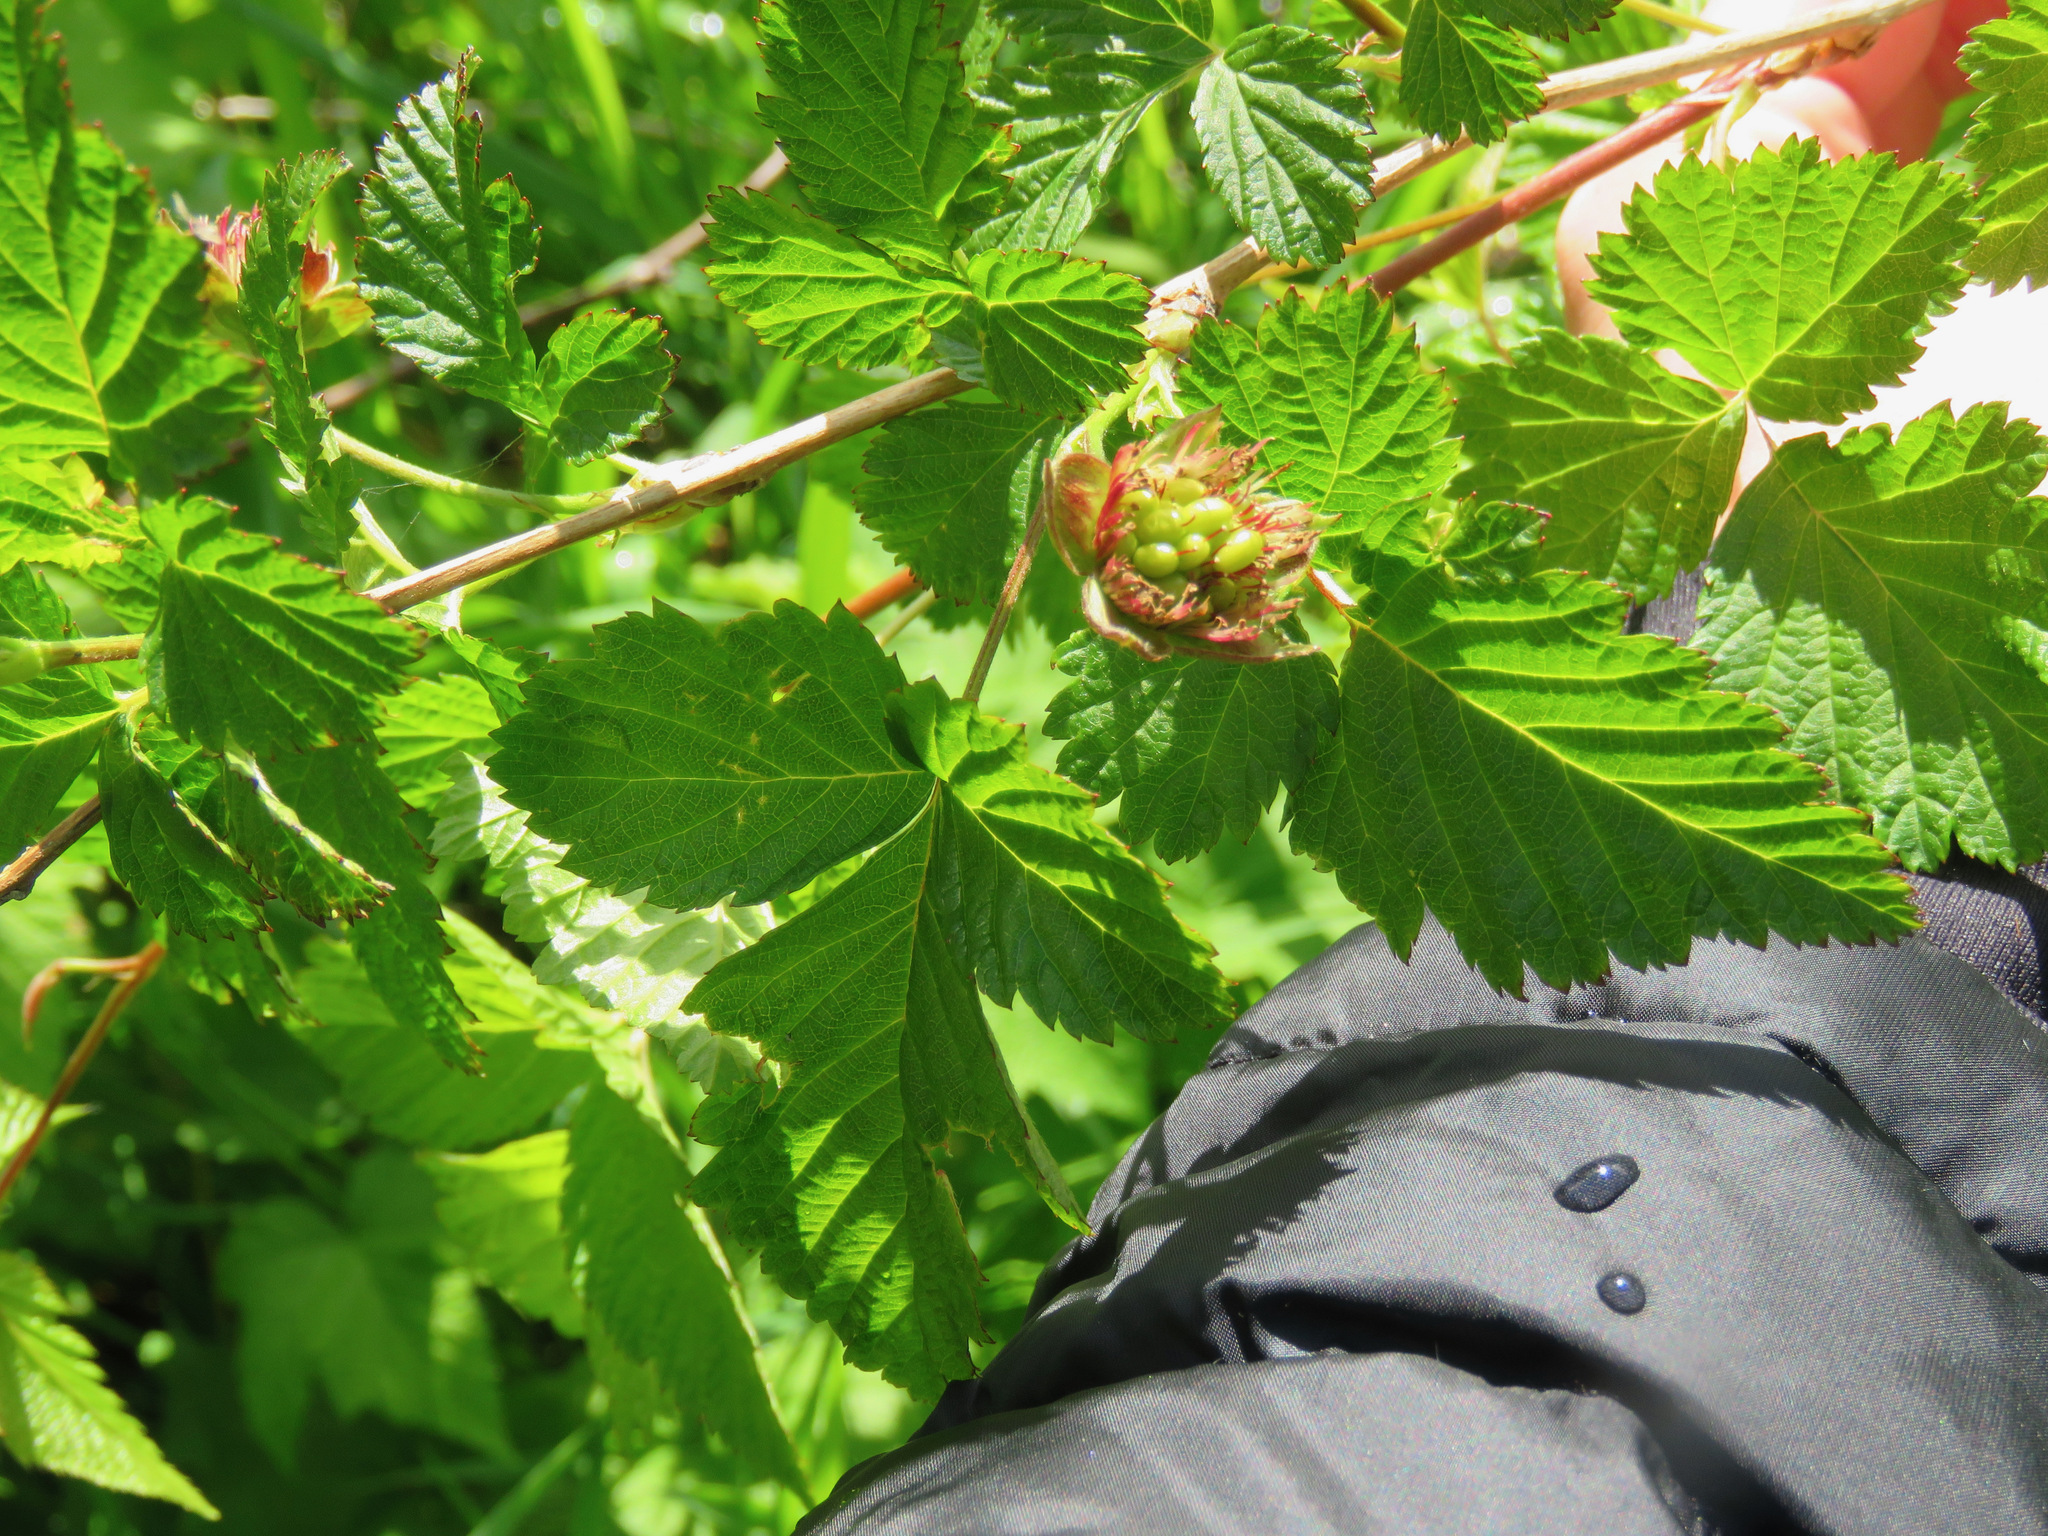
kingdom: Plantae
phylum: Tracheophyta
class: Magnoliopsida
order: Rosales
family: Rosaceae
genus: Rubus
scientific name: Rubus spectabilis
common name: Salmonberry
